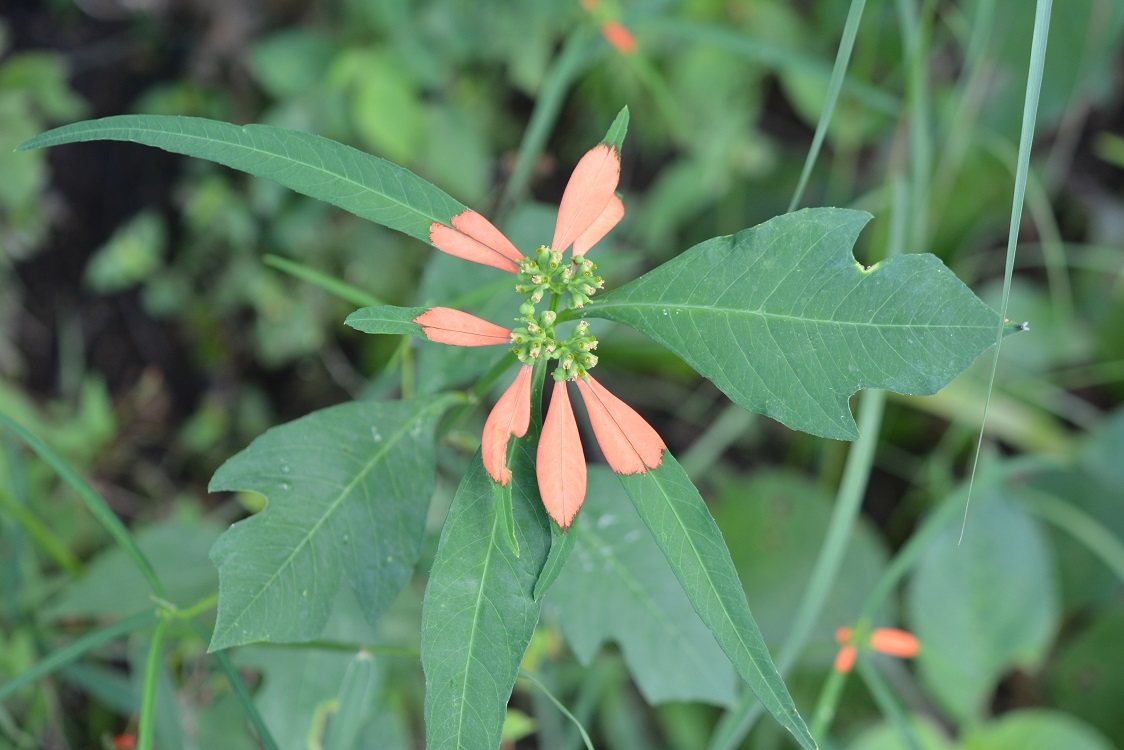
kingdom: Plantae
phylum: Tracheophyta
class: Magnoliopsida
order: Malpighiales
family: Euphorbiaceae
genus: Euphorbia
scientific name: Euphorbia heterophylla
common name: Mexican fireplant
